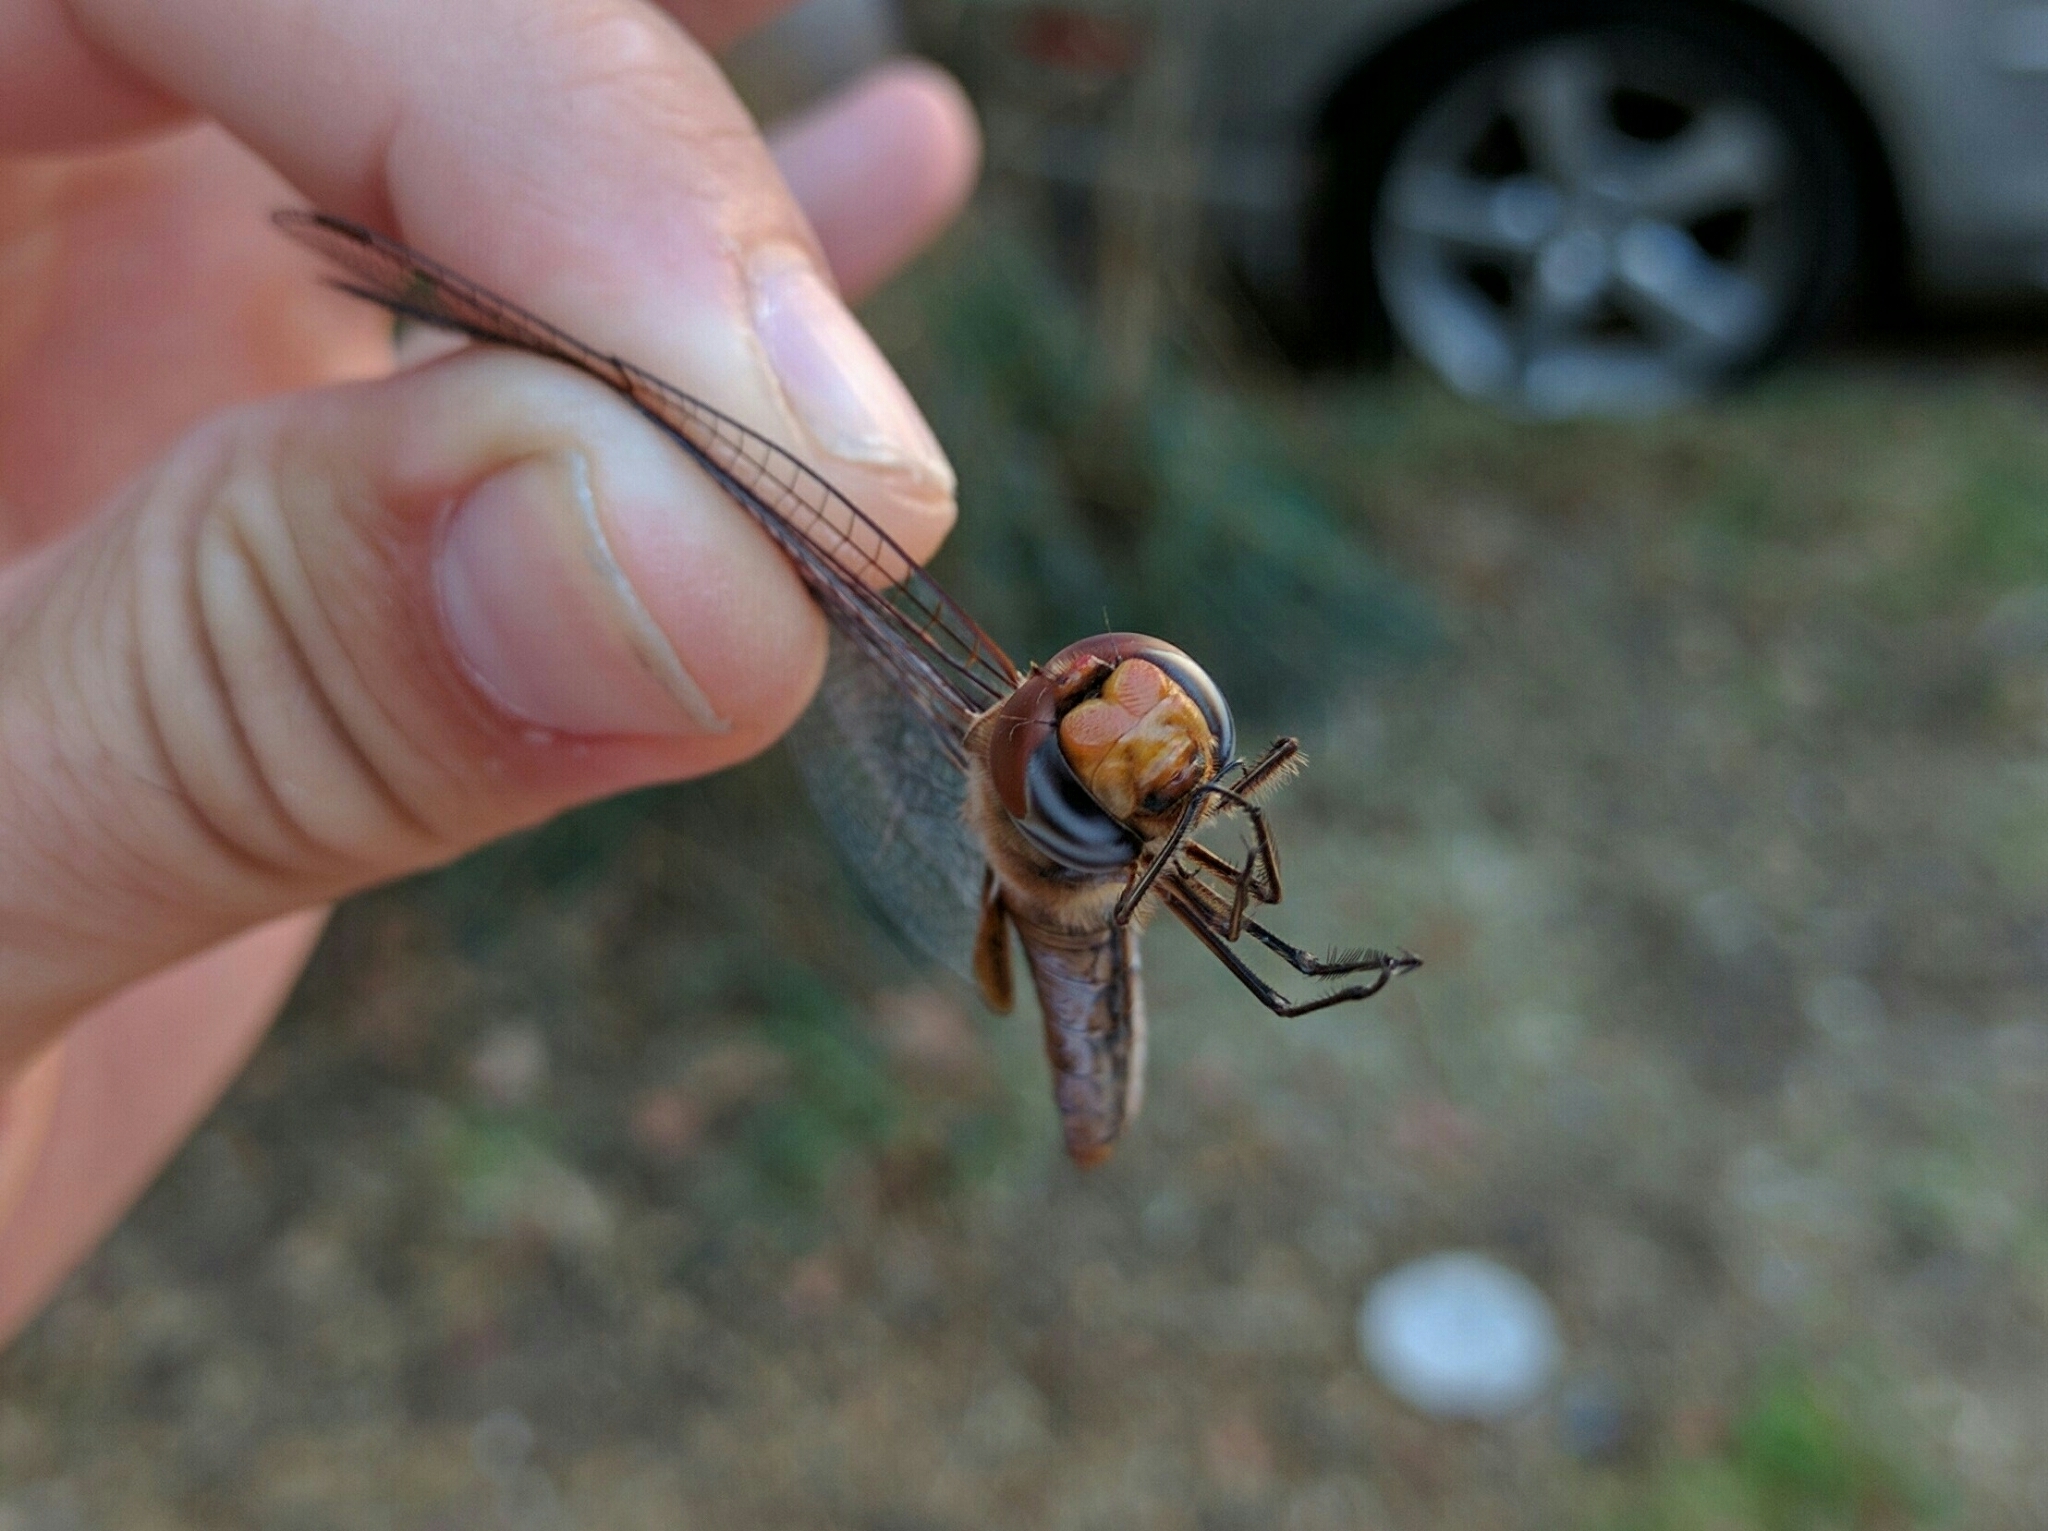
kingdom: Animalia
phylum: Arthropoda
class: Insecta
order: Odonata
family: Libellulidae
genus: Pantala
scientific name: Pantala hymenaea
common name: Spot-winged glider
